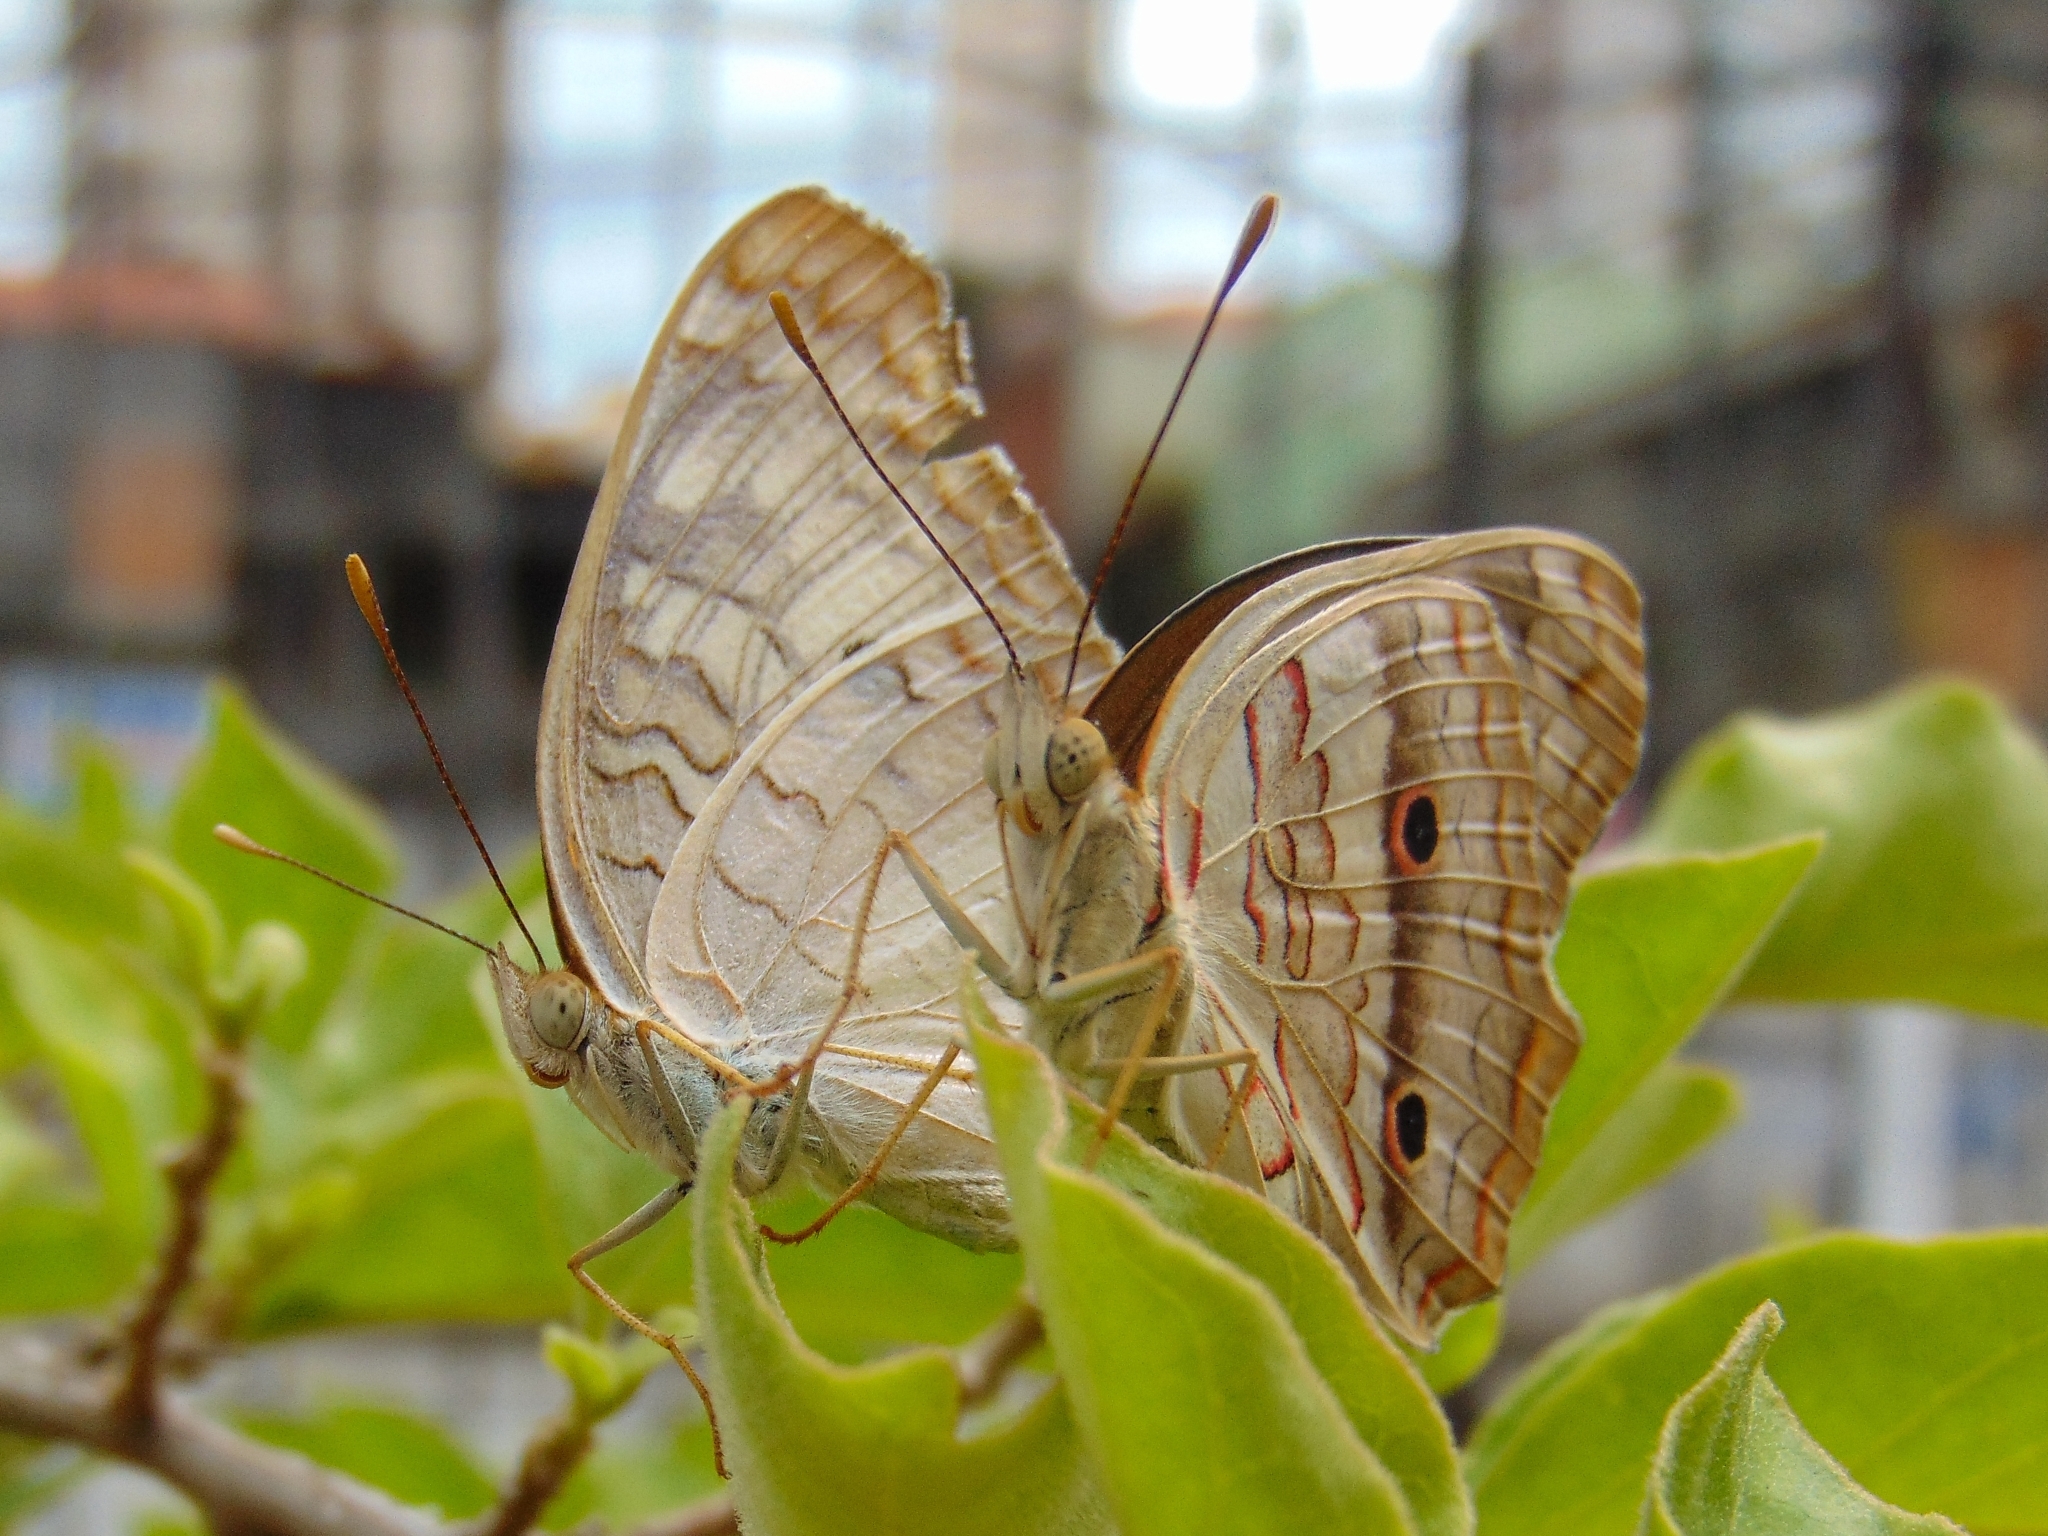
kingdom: Animalia
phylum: Arthropoda
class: Insecta
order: Lepidoptera
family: Nymphalidae
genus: Anartia
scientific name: Anartia jatrophae
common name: White peacock
